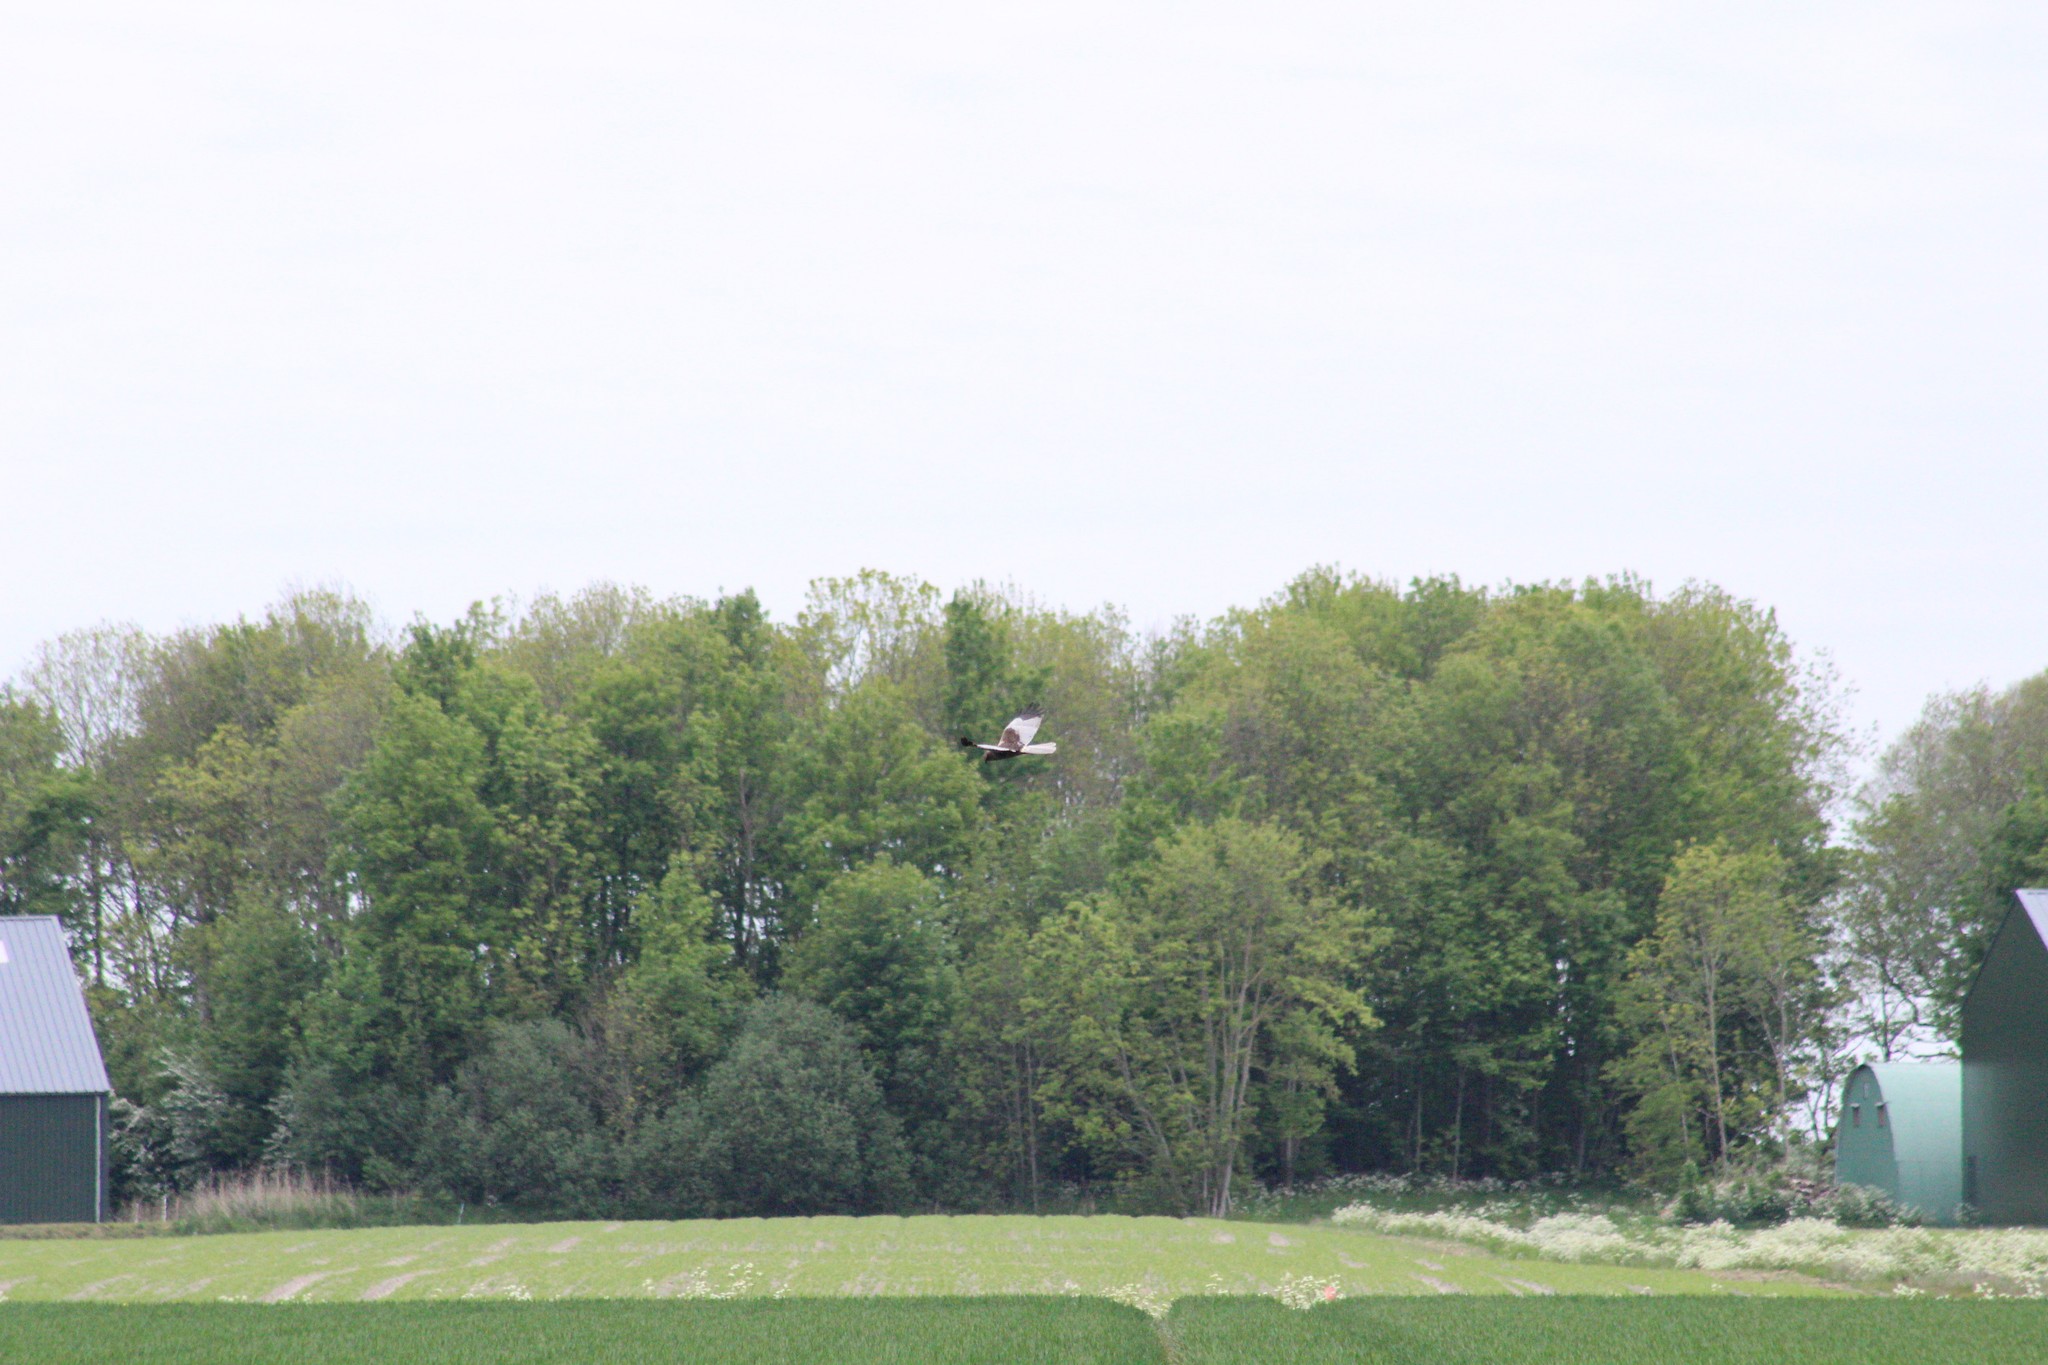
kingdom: Animalia
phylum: Chordata
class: Aves
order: Accipitriformes
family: Accipitridae
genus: Circus
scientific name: Circus aeruginosus
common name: Western marsh harrier
